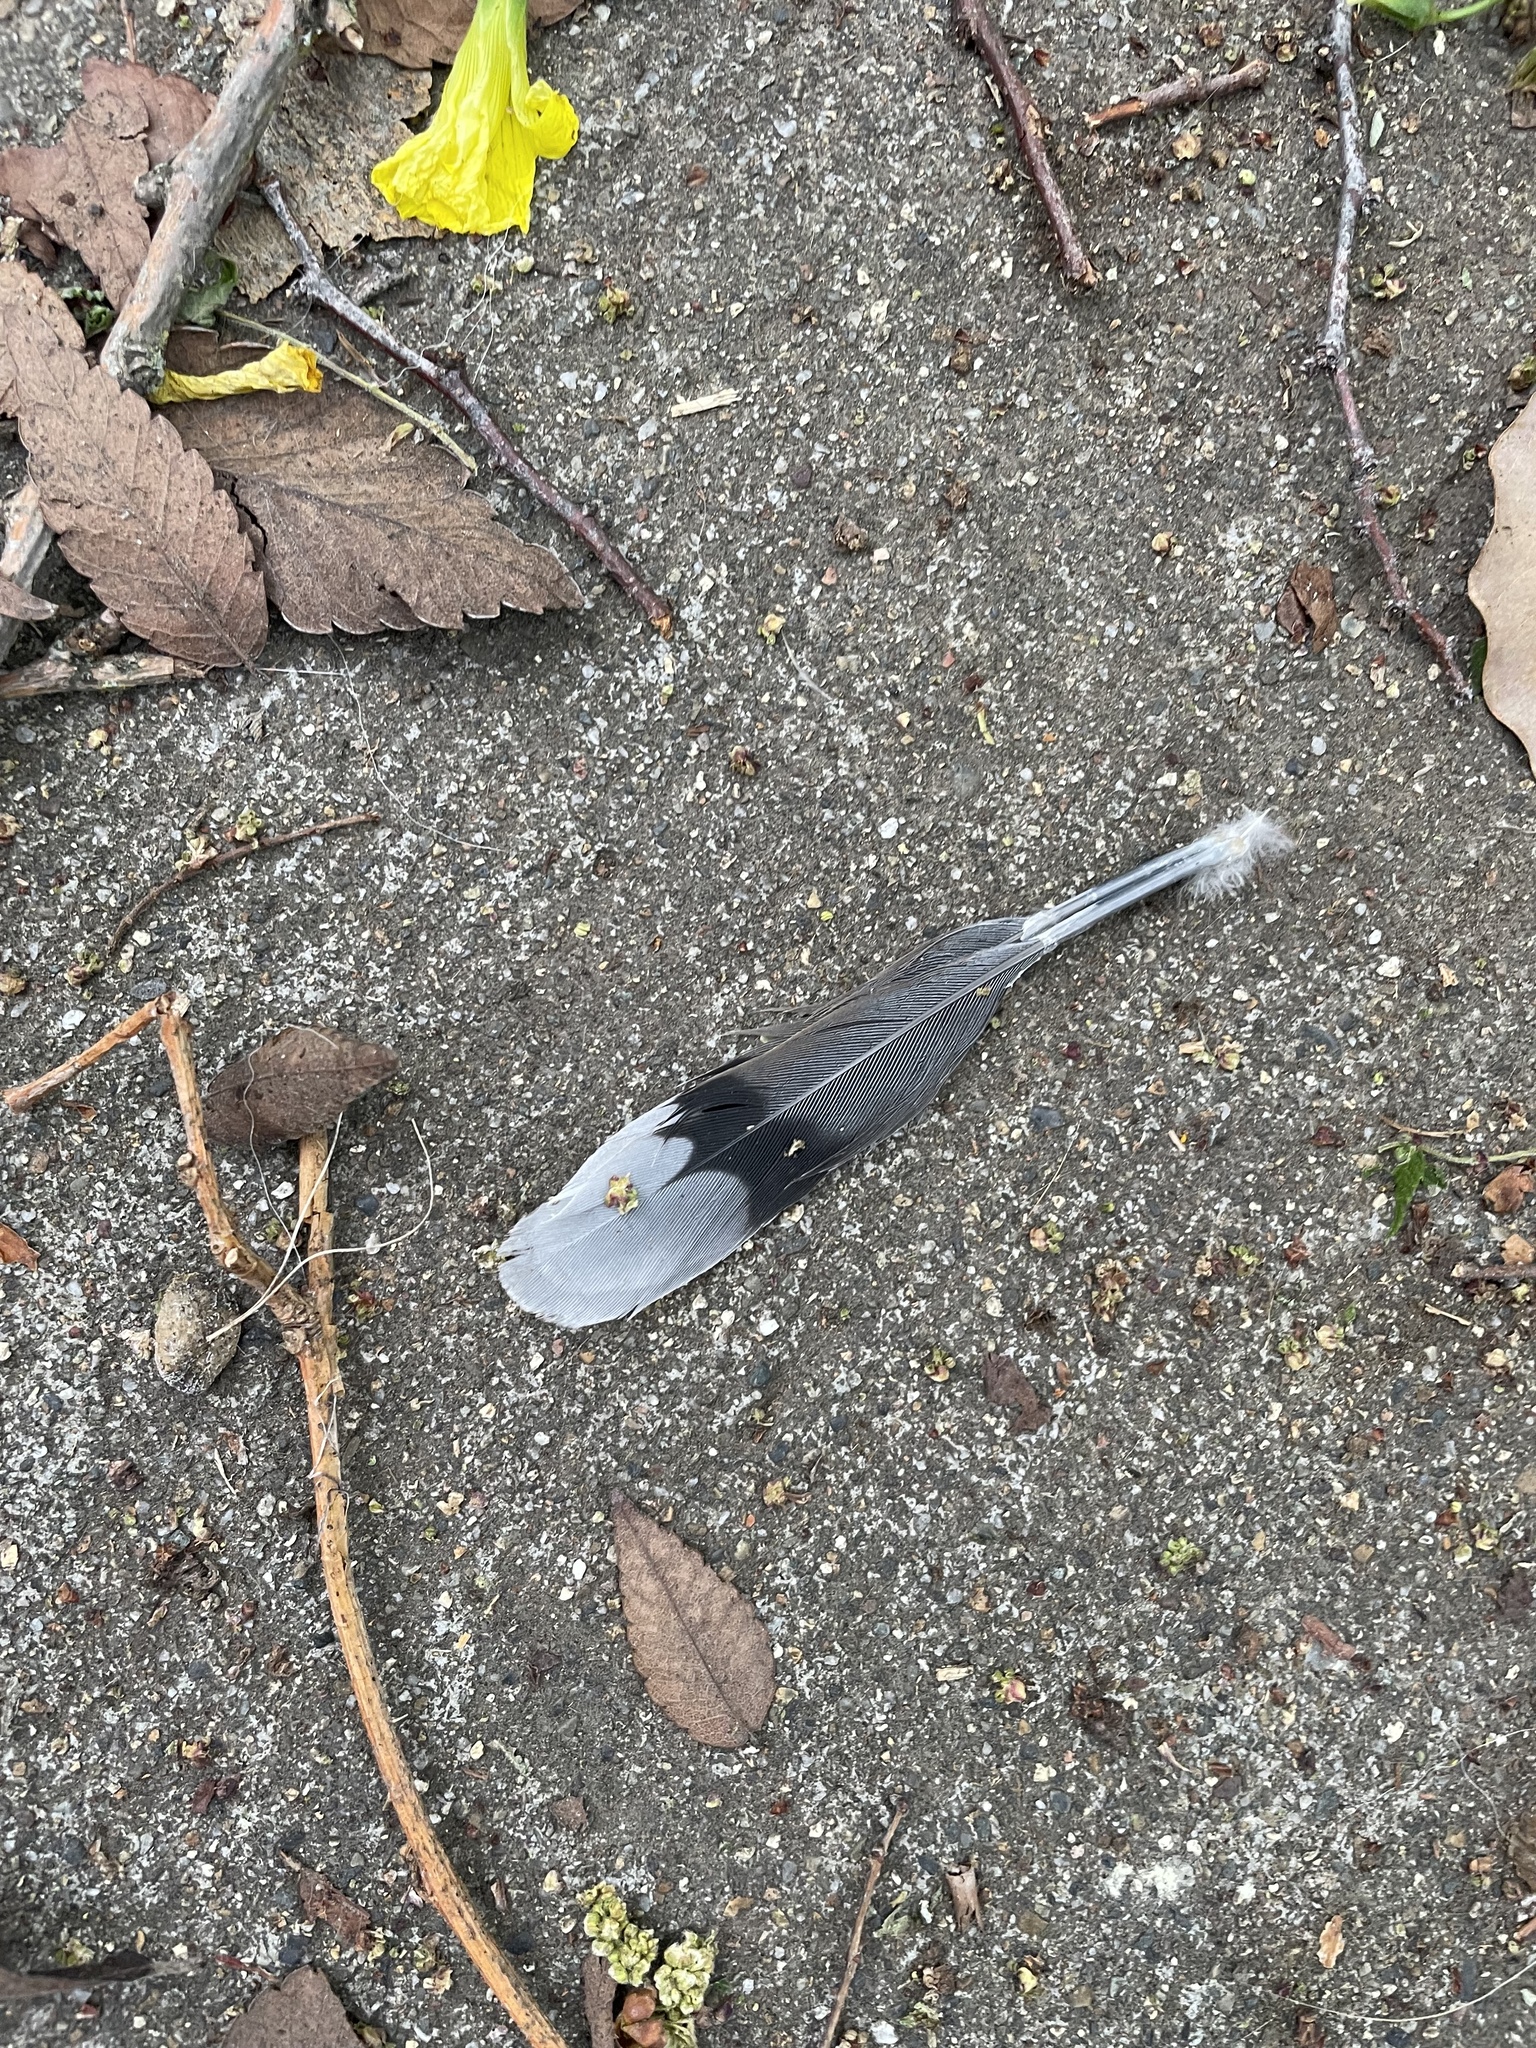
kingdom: Animalia
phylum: Chordata
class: Aves
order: Columbiformes
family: Columbidae
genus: Zenaida
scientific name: Zenaida macroura
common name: Mourning dove
